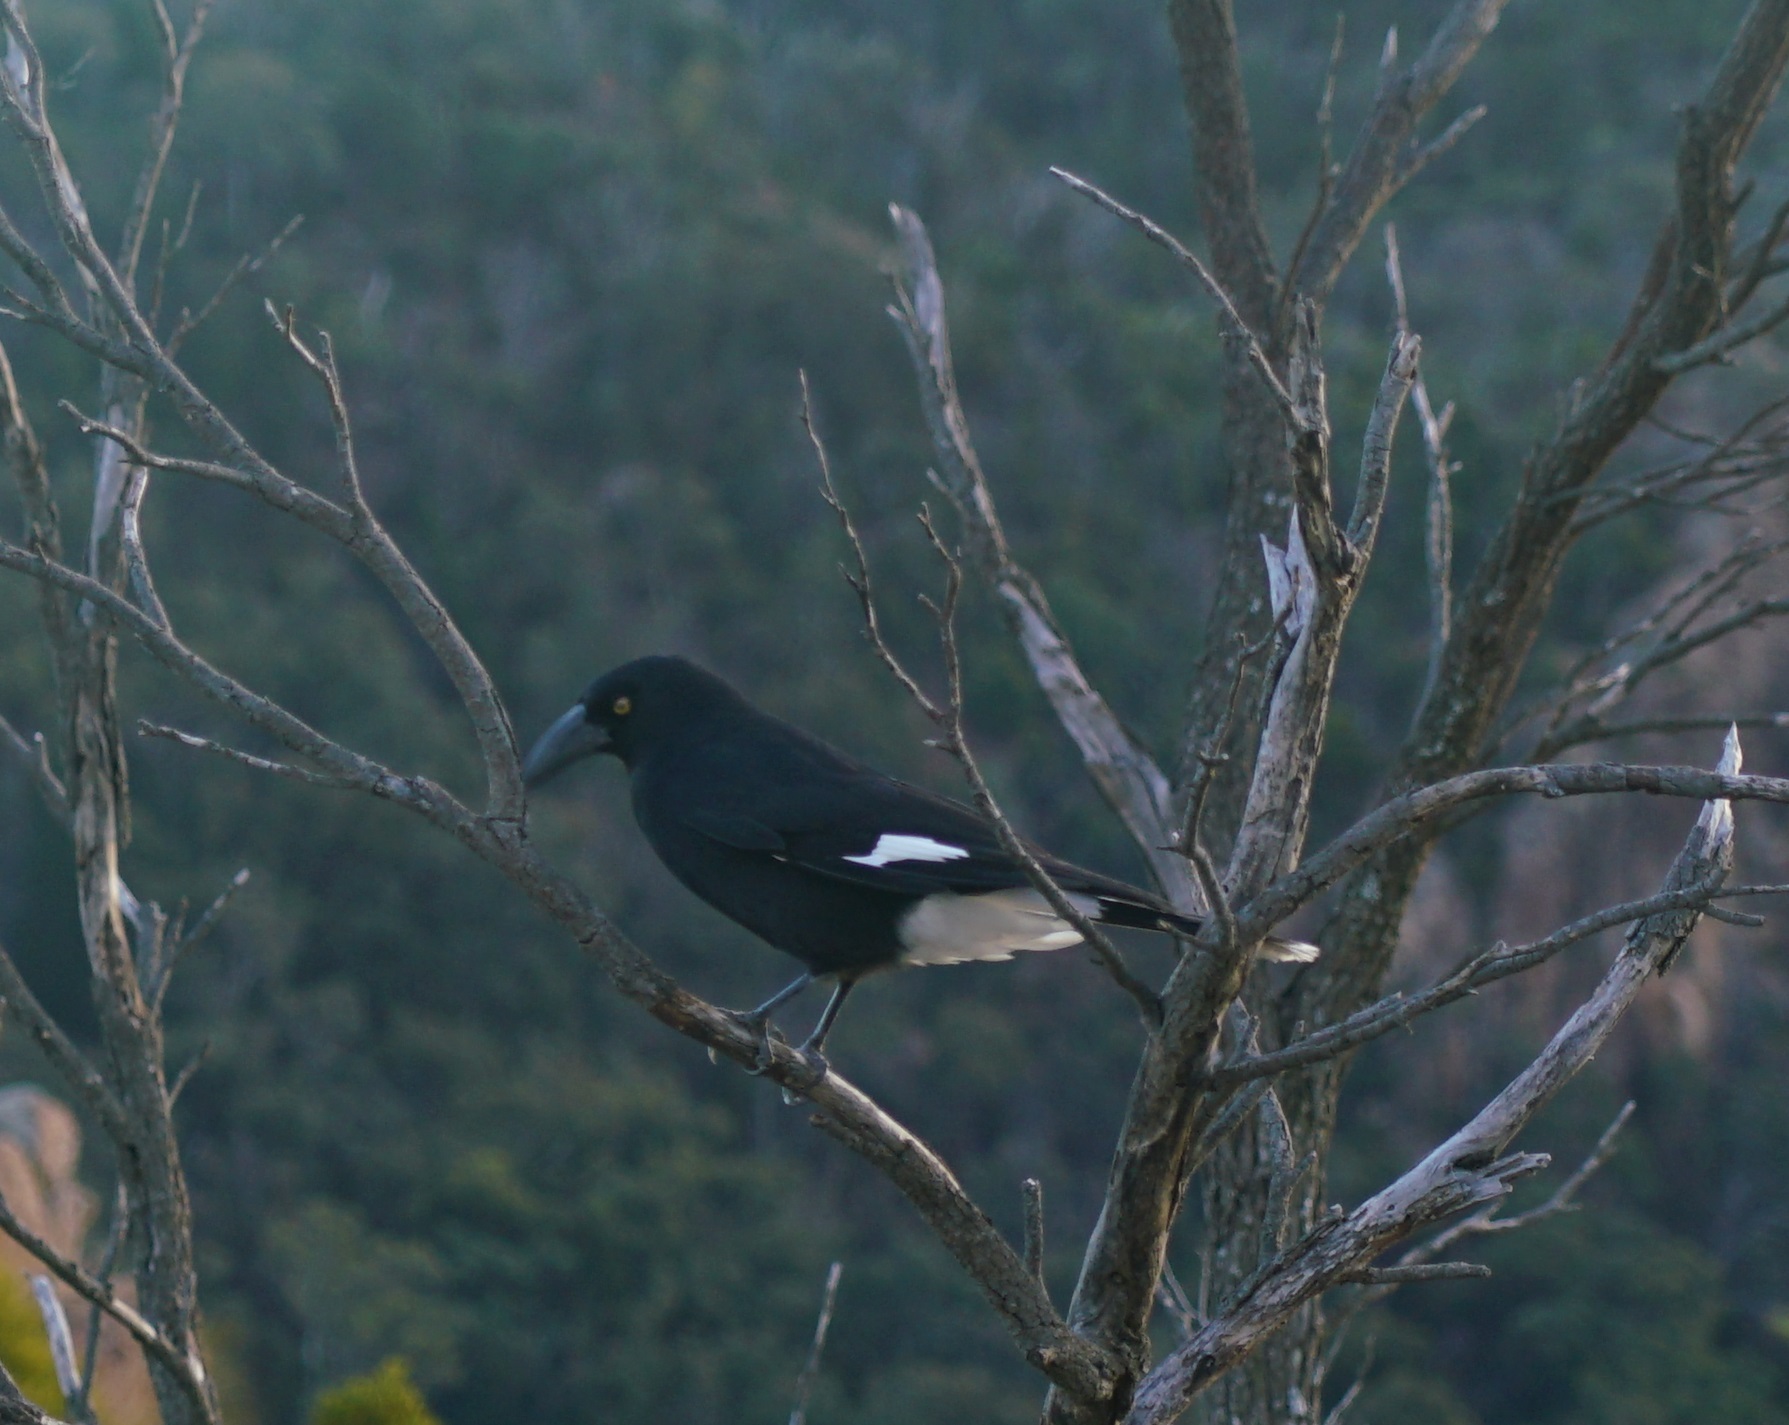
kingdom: Animalia
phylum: Chordata
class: Aves
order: Passeriformes
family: Cracticidae
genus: Strepera
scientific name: Strepera graculina
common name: Pied currawong
